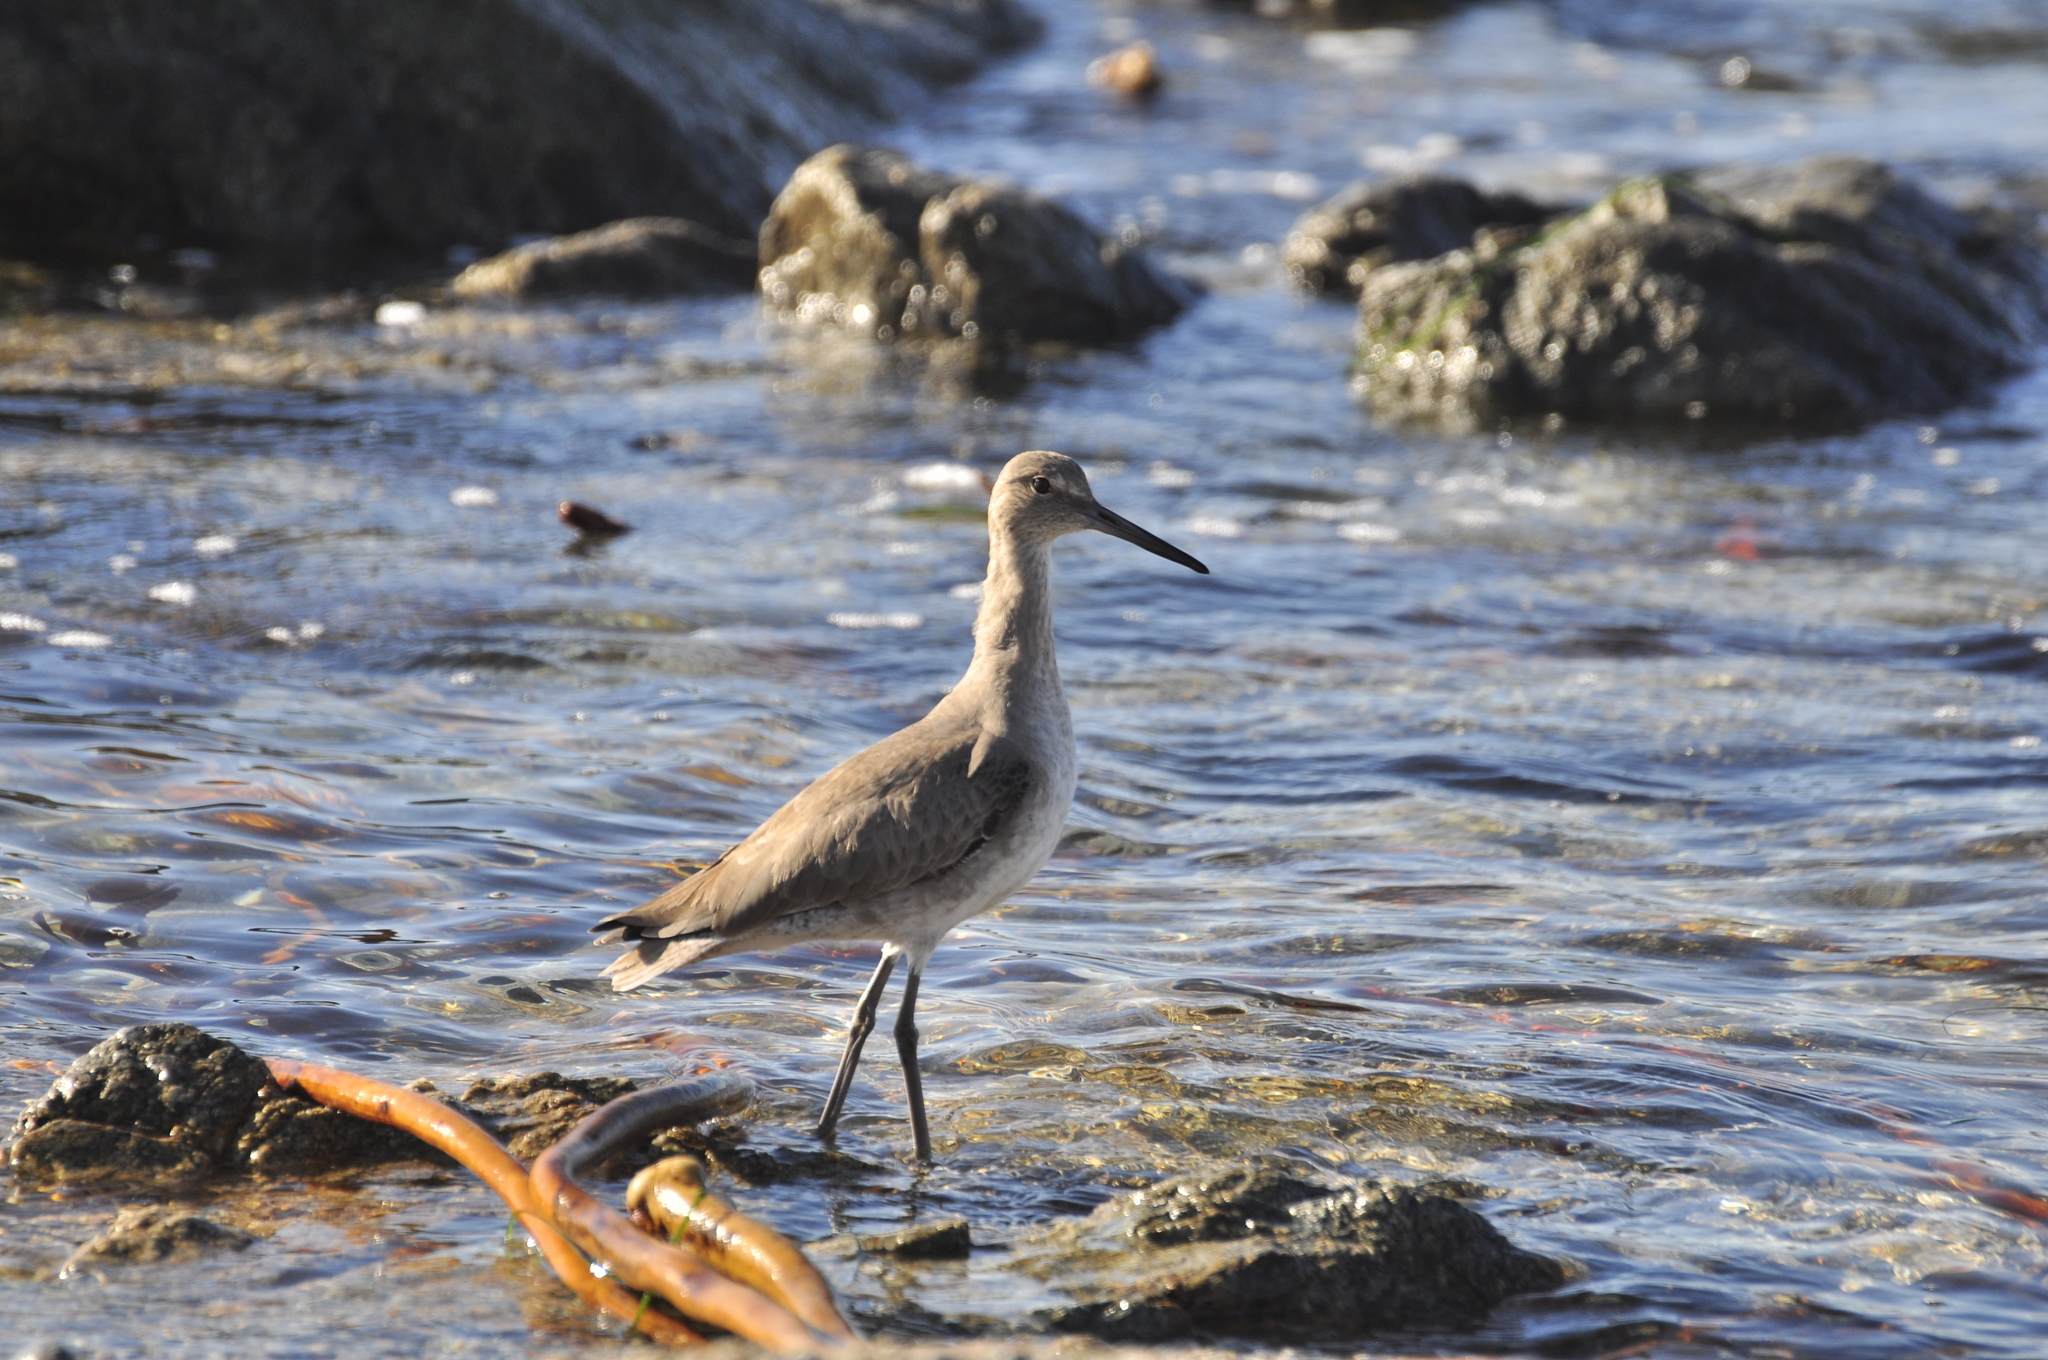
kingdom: Animalia
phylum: Chordata
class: Aves
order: Charadriiformes
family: Scolopacidae
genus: Tringa
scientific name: Tringa semipalmata
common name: Willet
